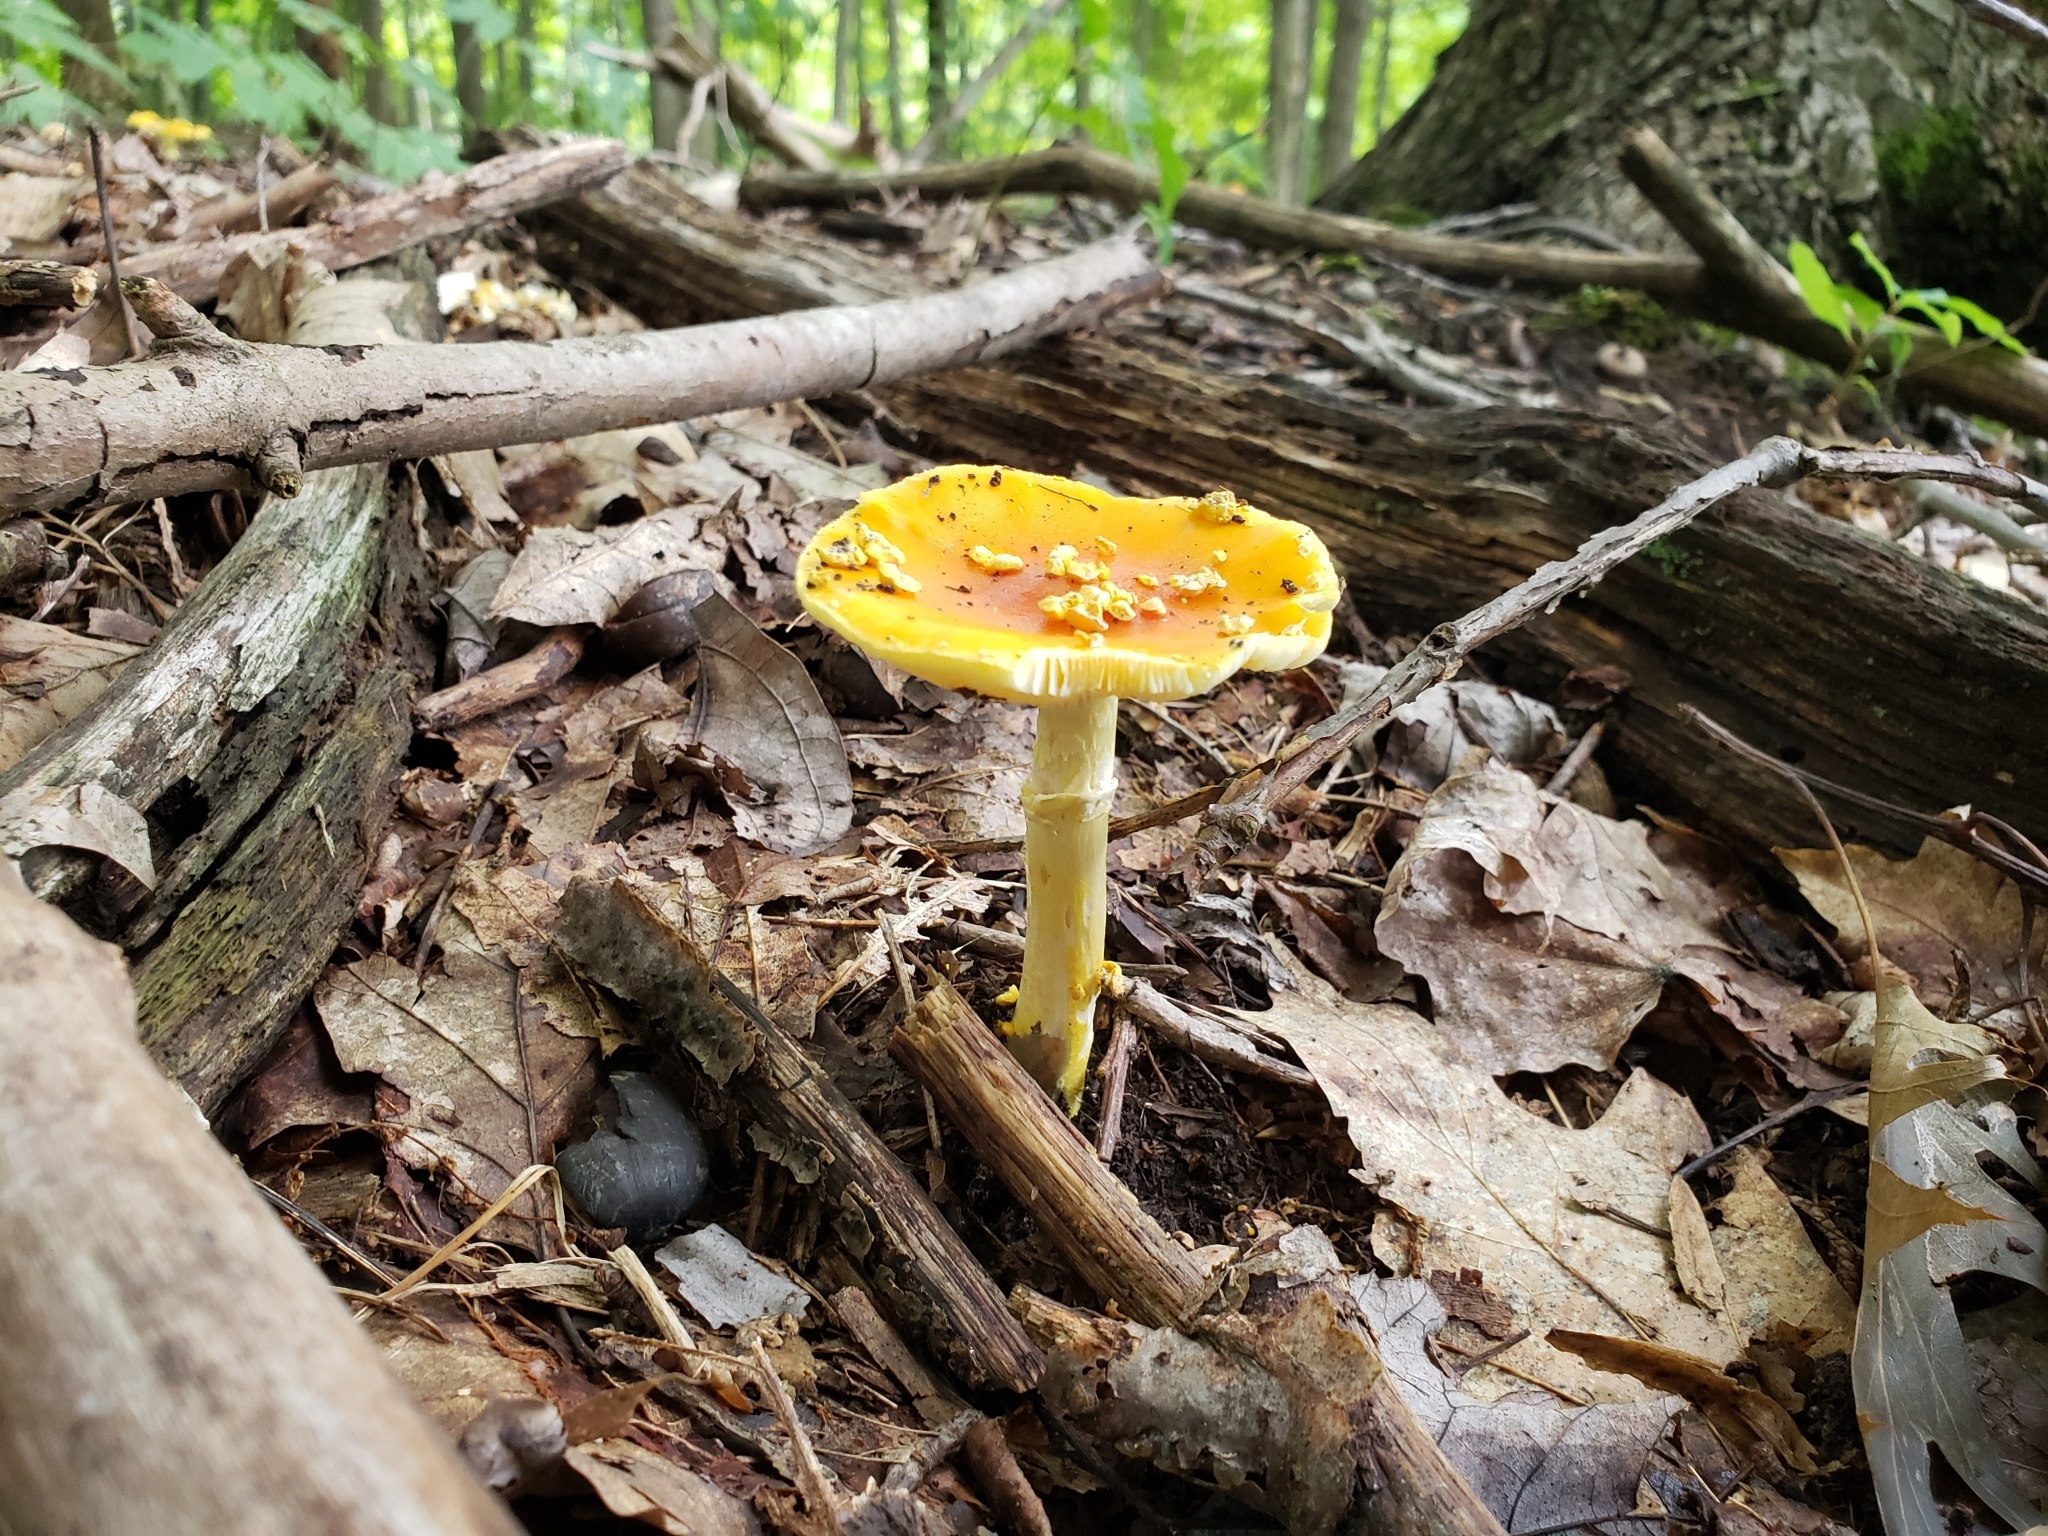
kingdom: Fungi
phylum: Basidiomycota
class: Agaricomycetes
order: Agaricales
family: Amanitaceae
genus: Amanita
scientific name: Amanita flavoconia
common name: Yellow patches
